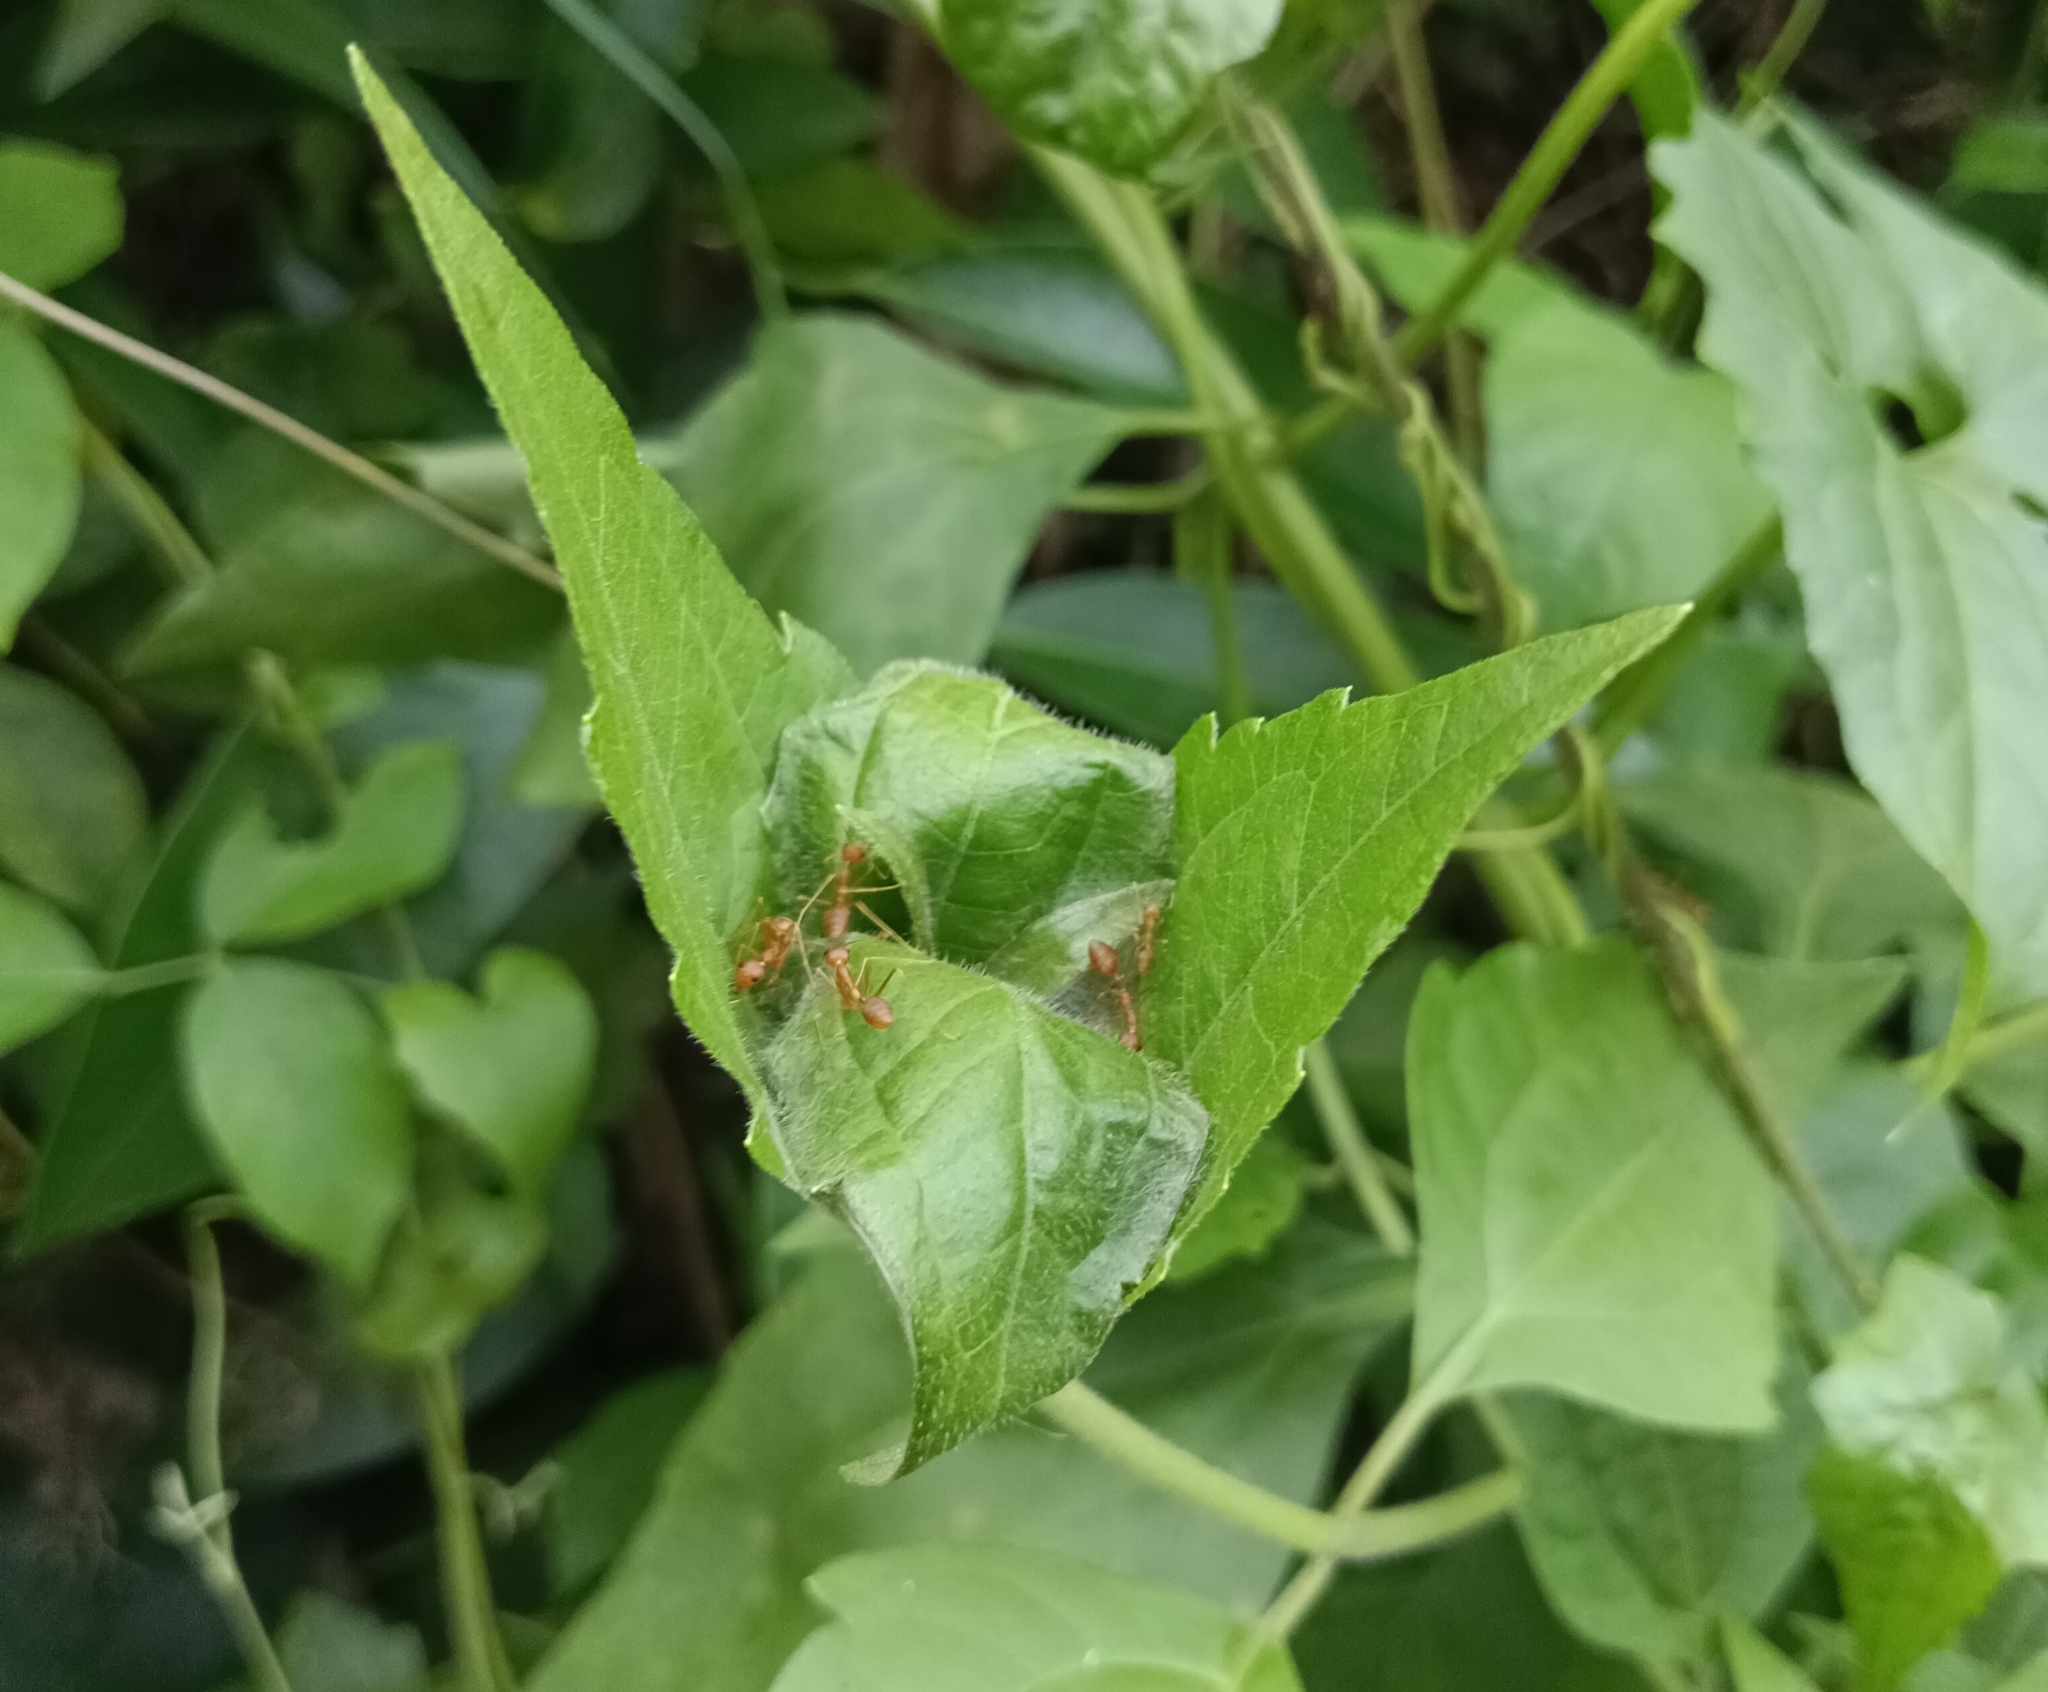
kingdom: Animalia
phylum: Arthropoda
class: Insecta
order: Hymenoptera
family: Formicidae
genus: Oecophylla
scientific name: Oecophylla smaragdina
